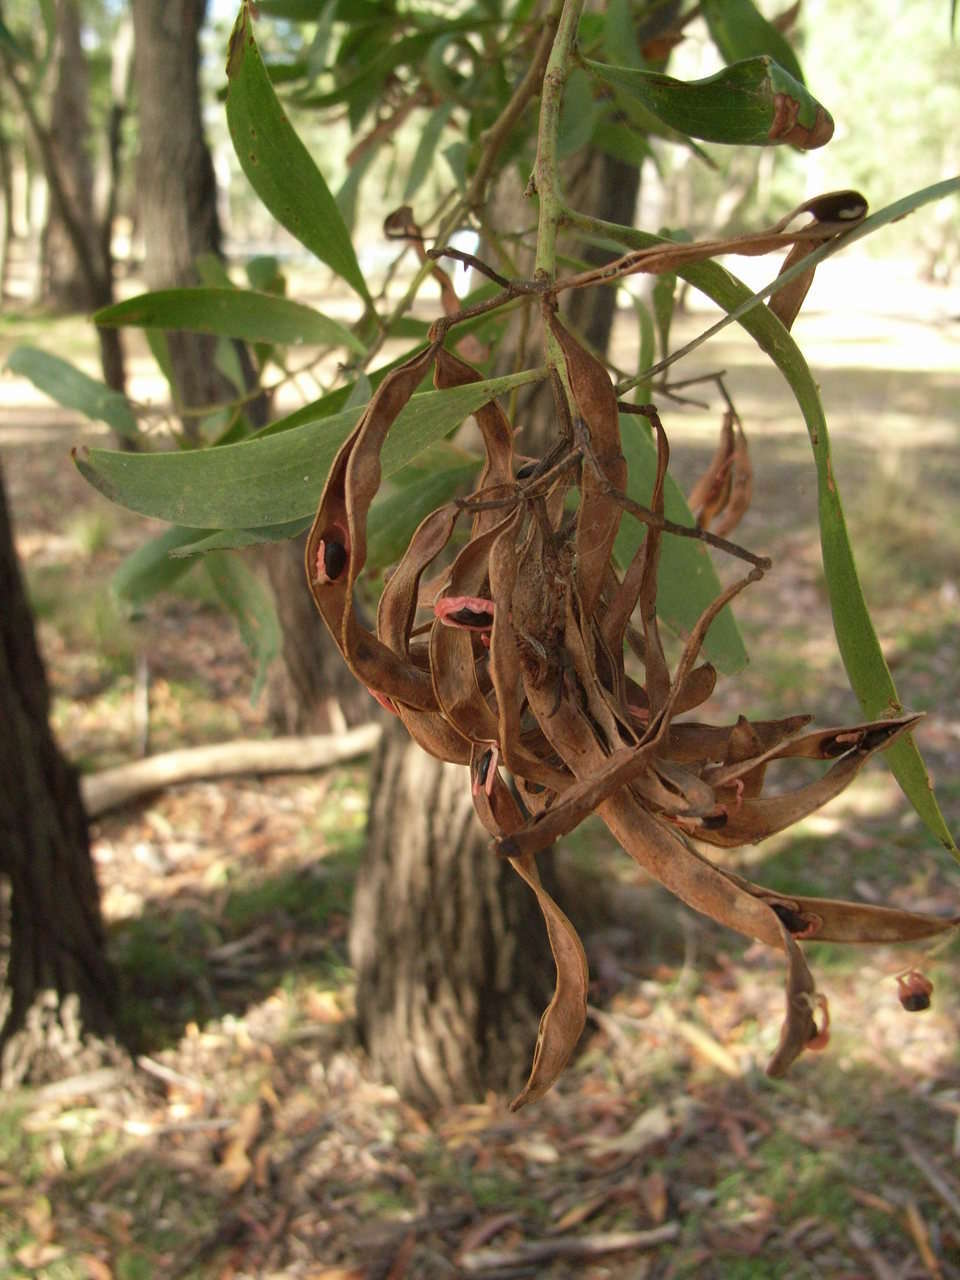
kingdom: Plantae
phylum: Tracheophyta
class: Magnoliopsida
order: Fabales
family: Fabaceae
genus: Acacia
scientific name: Acacia melanoxylon
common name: Blackwood
